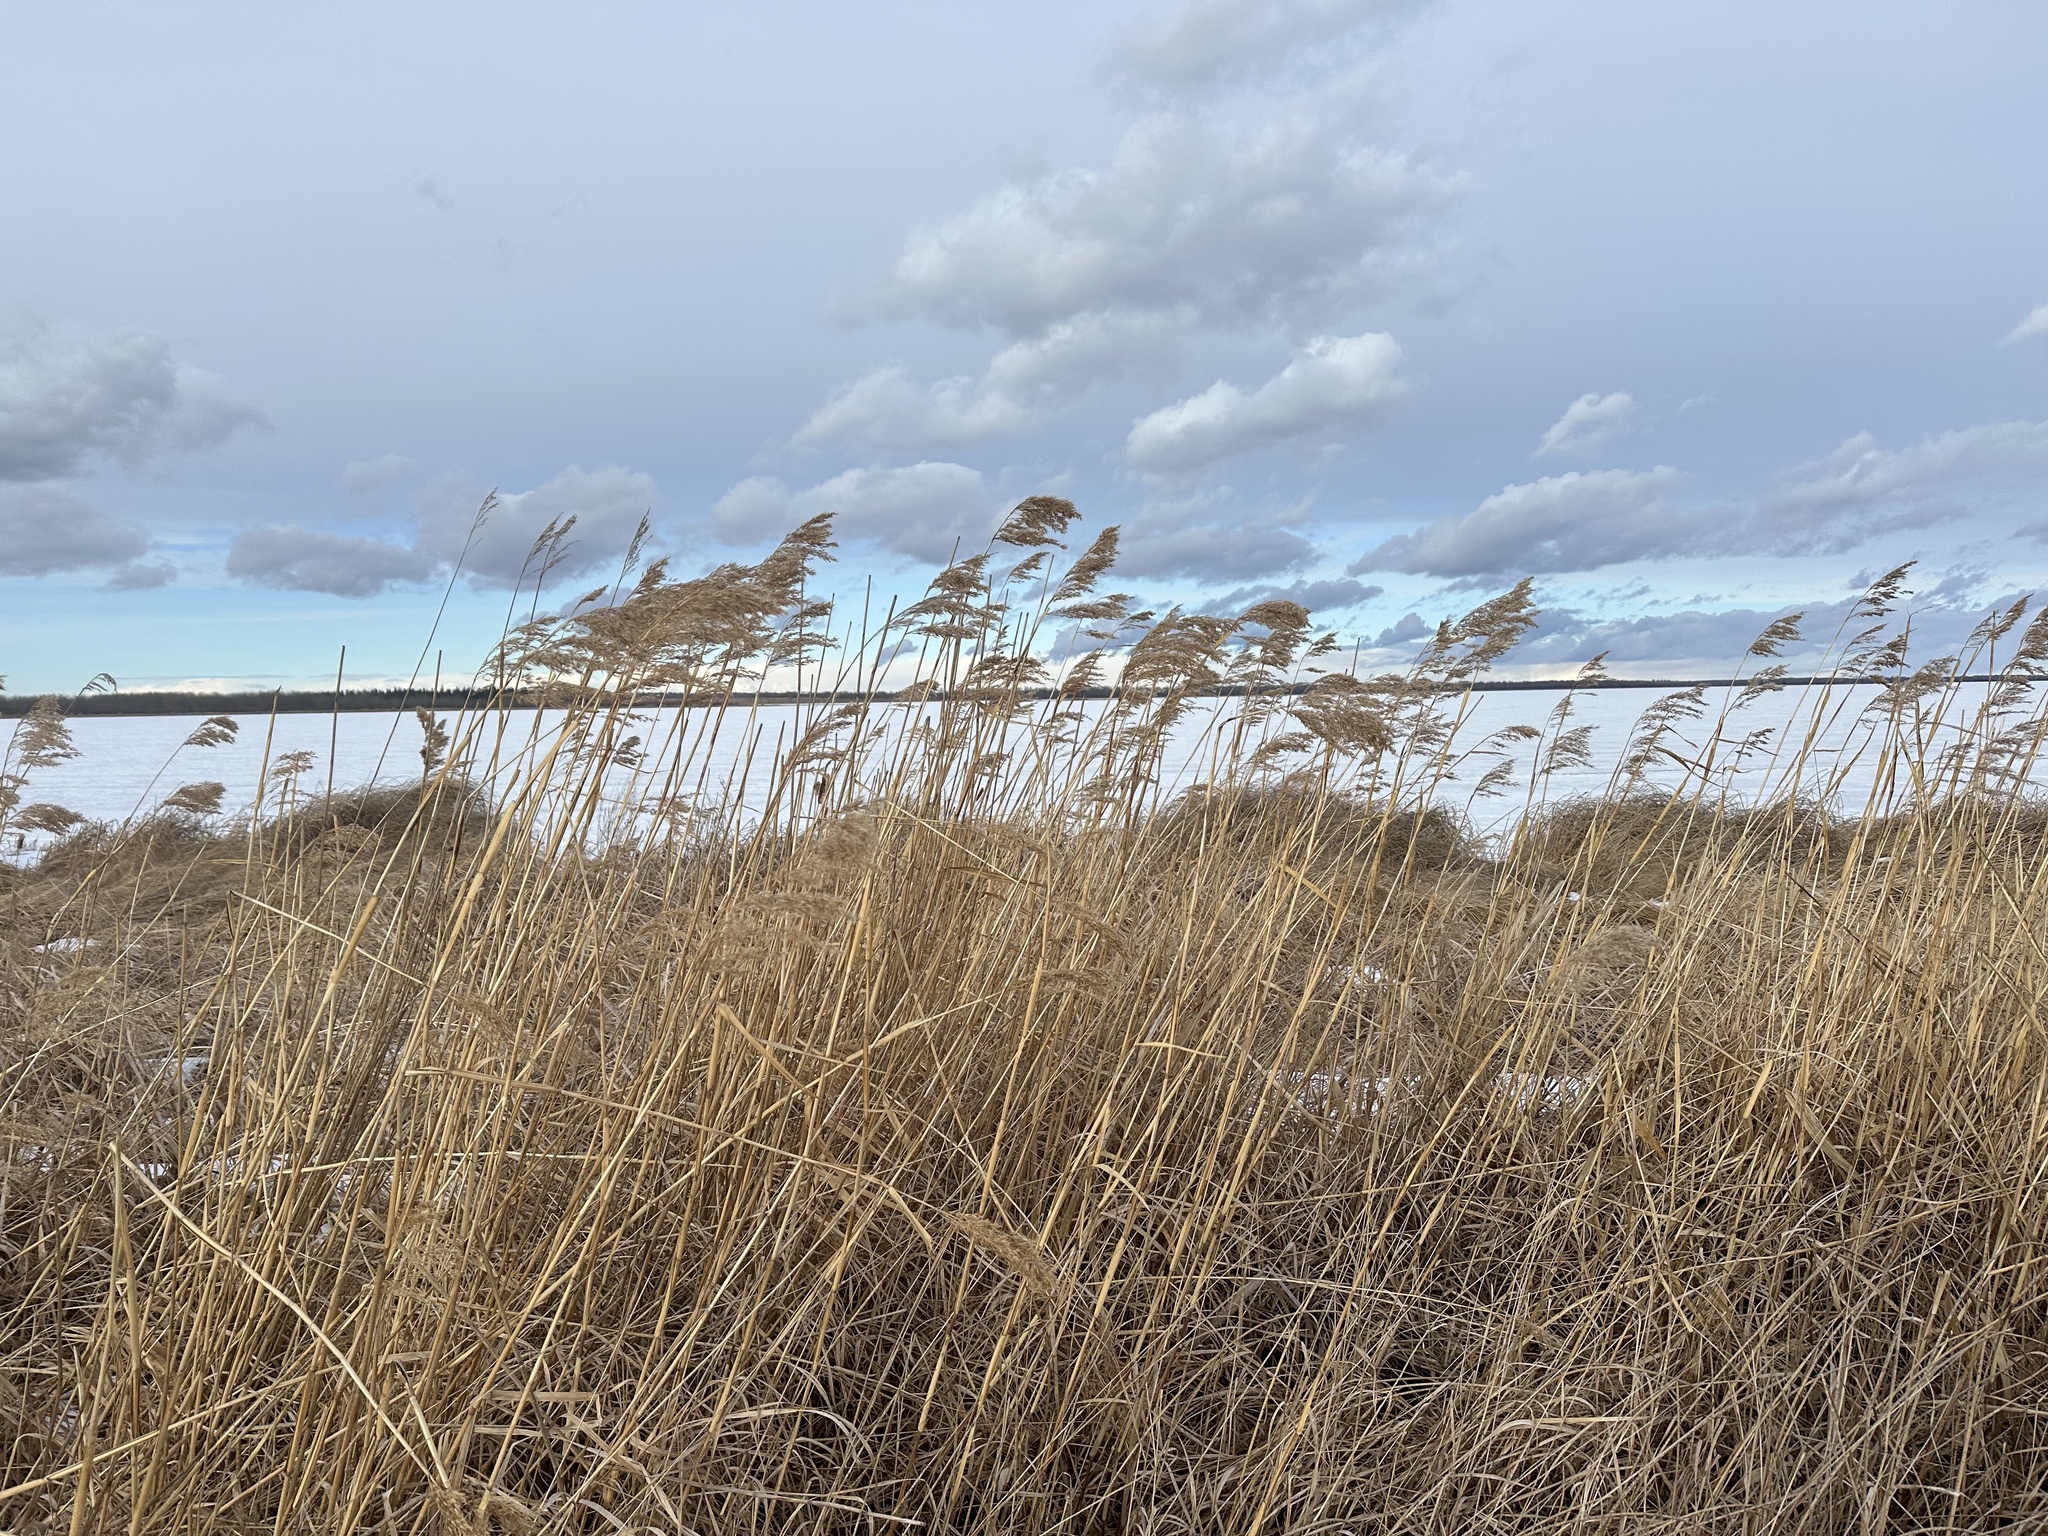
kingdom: Plantae
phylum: Tracheophyta
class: Liliopsida
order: Poales
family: Poaceae
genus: Phragmites
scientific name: Phragmites australis
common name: Common reed
